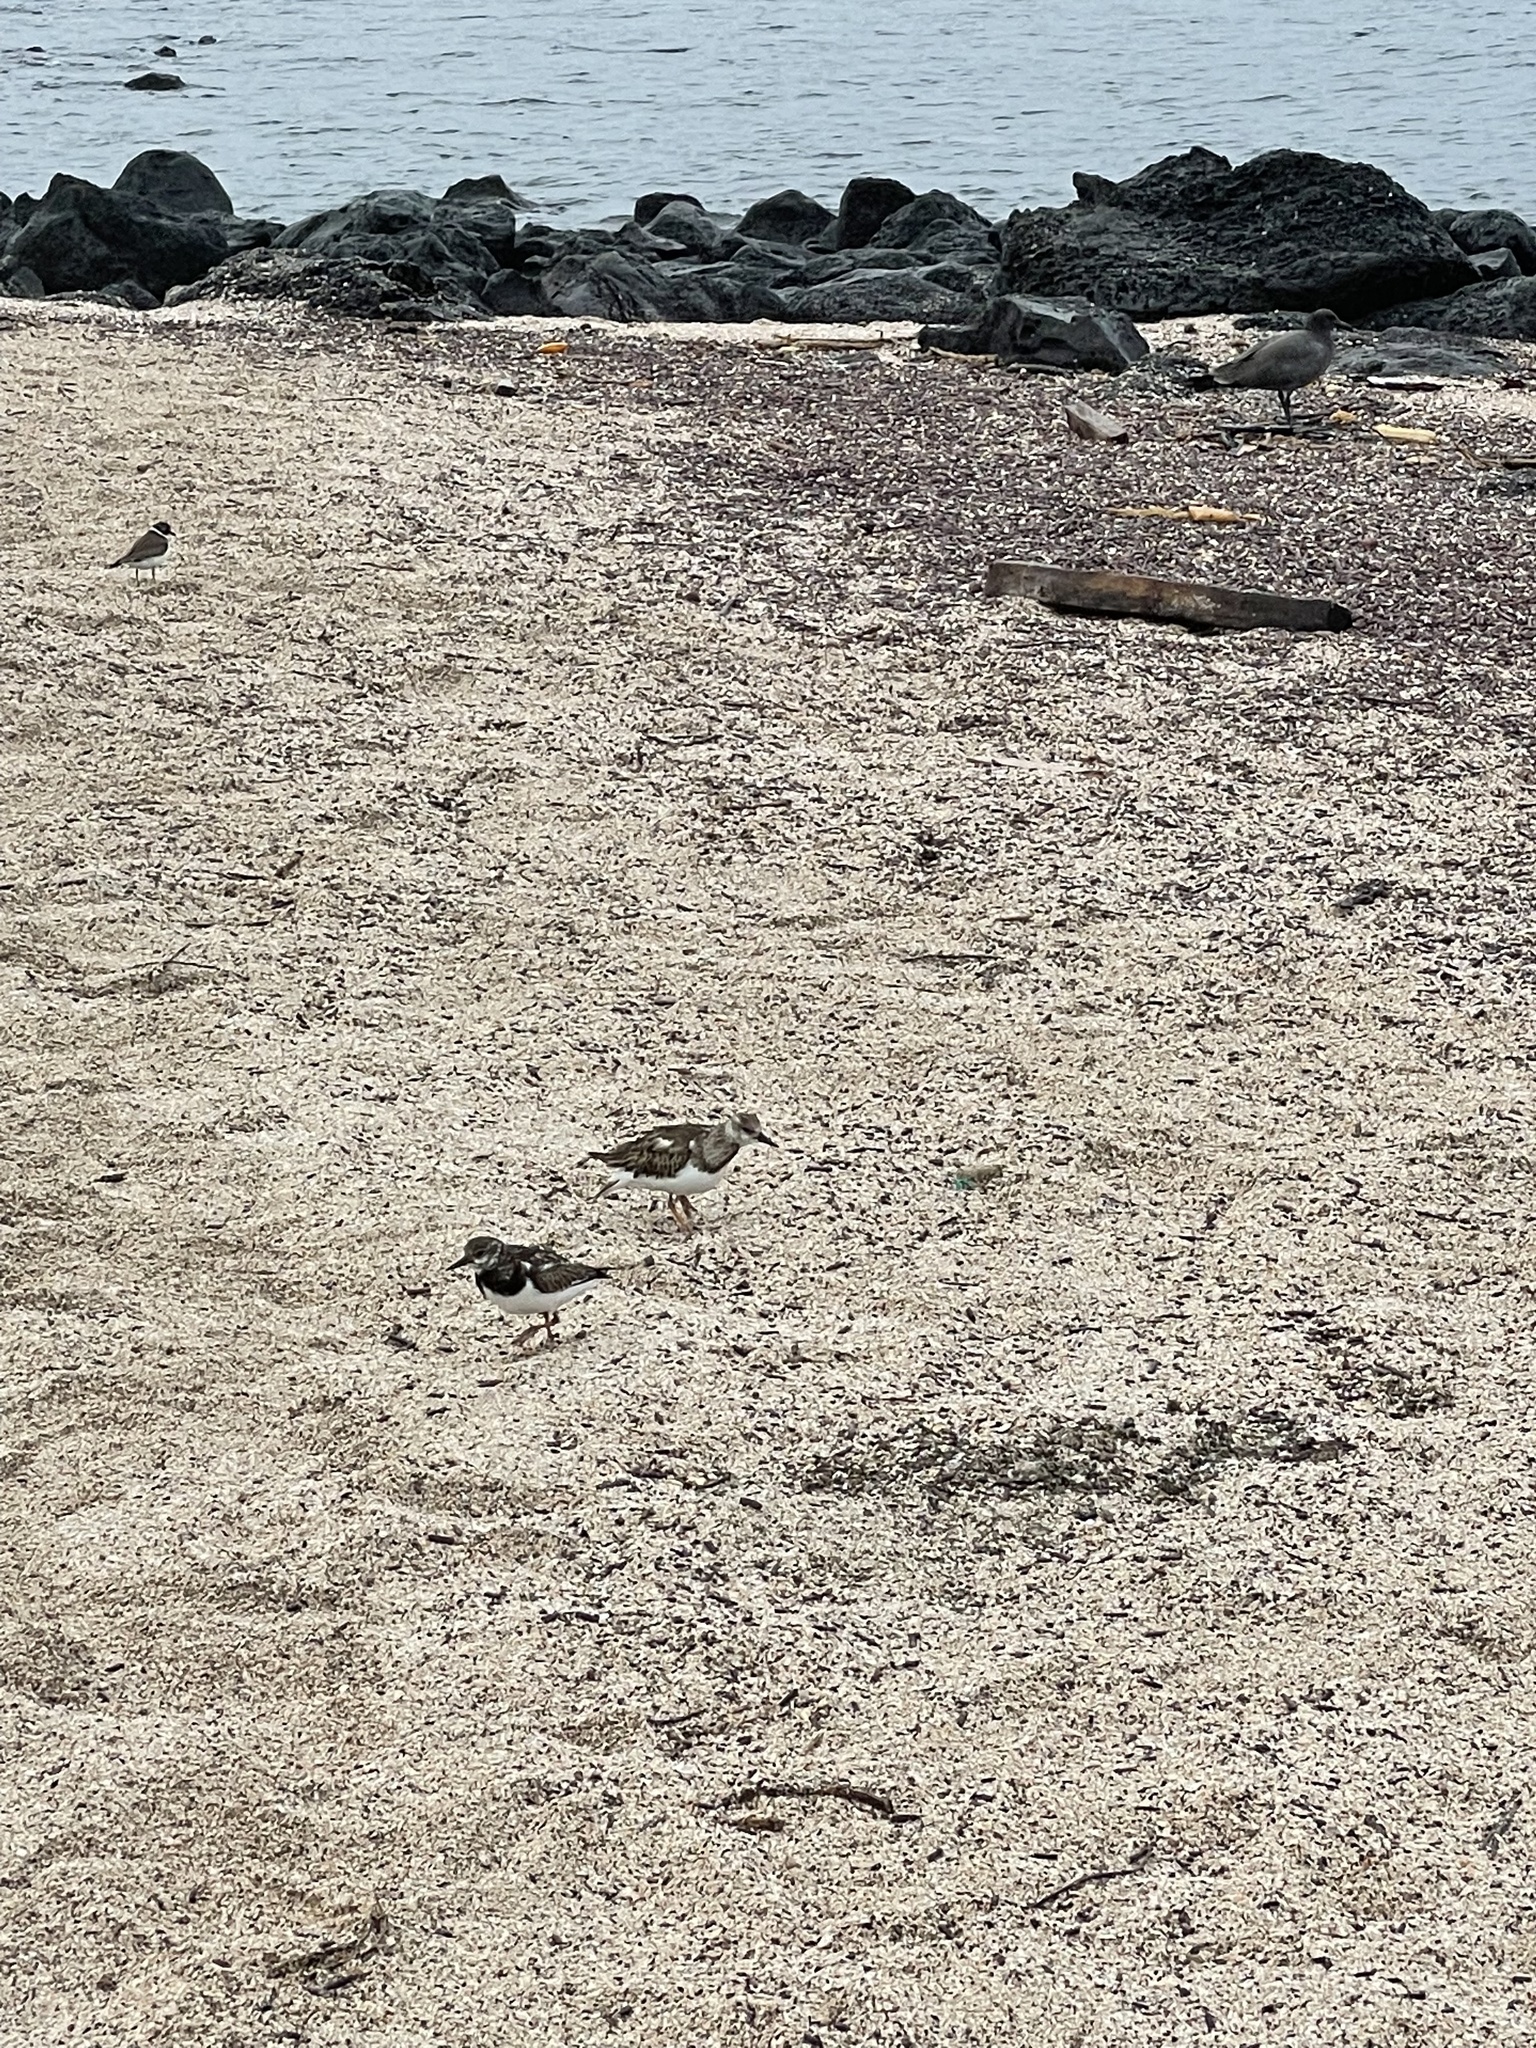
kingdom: Animalia
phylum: Chordata
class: Aves
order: Charadriiformes
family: Scolopacidae
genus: Arenaria
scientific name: Arenaria interpres
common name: Ruddy turnstone
